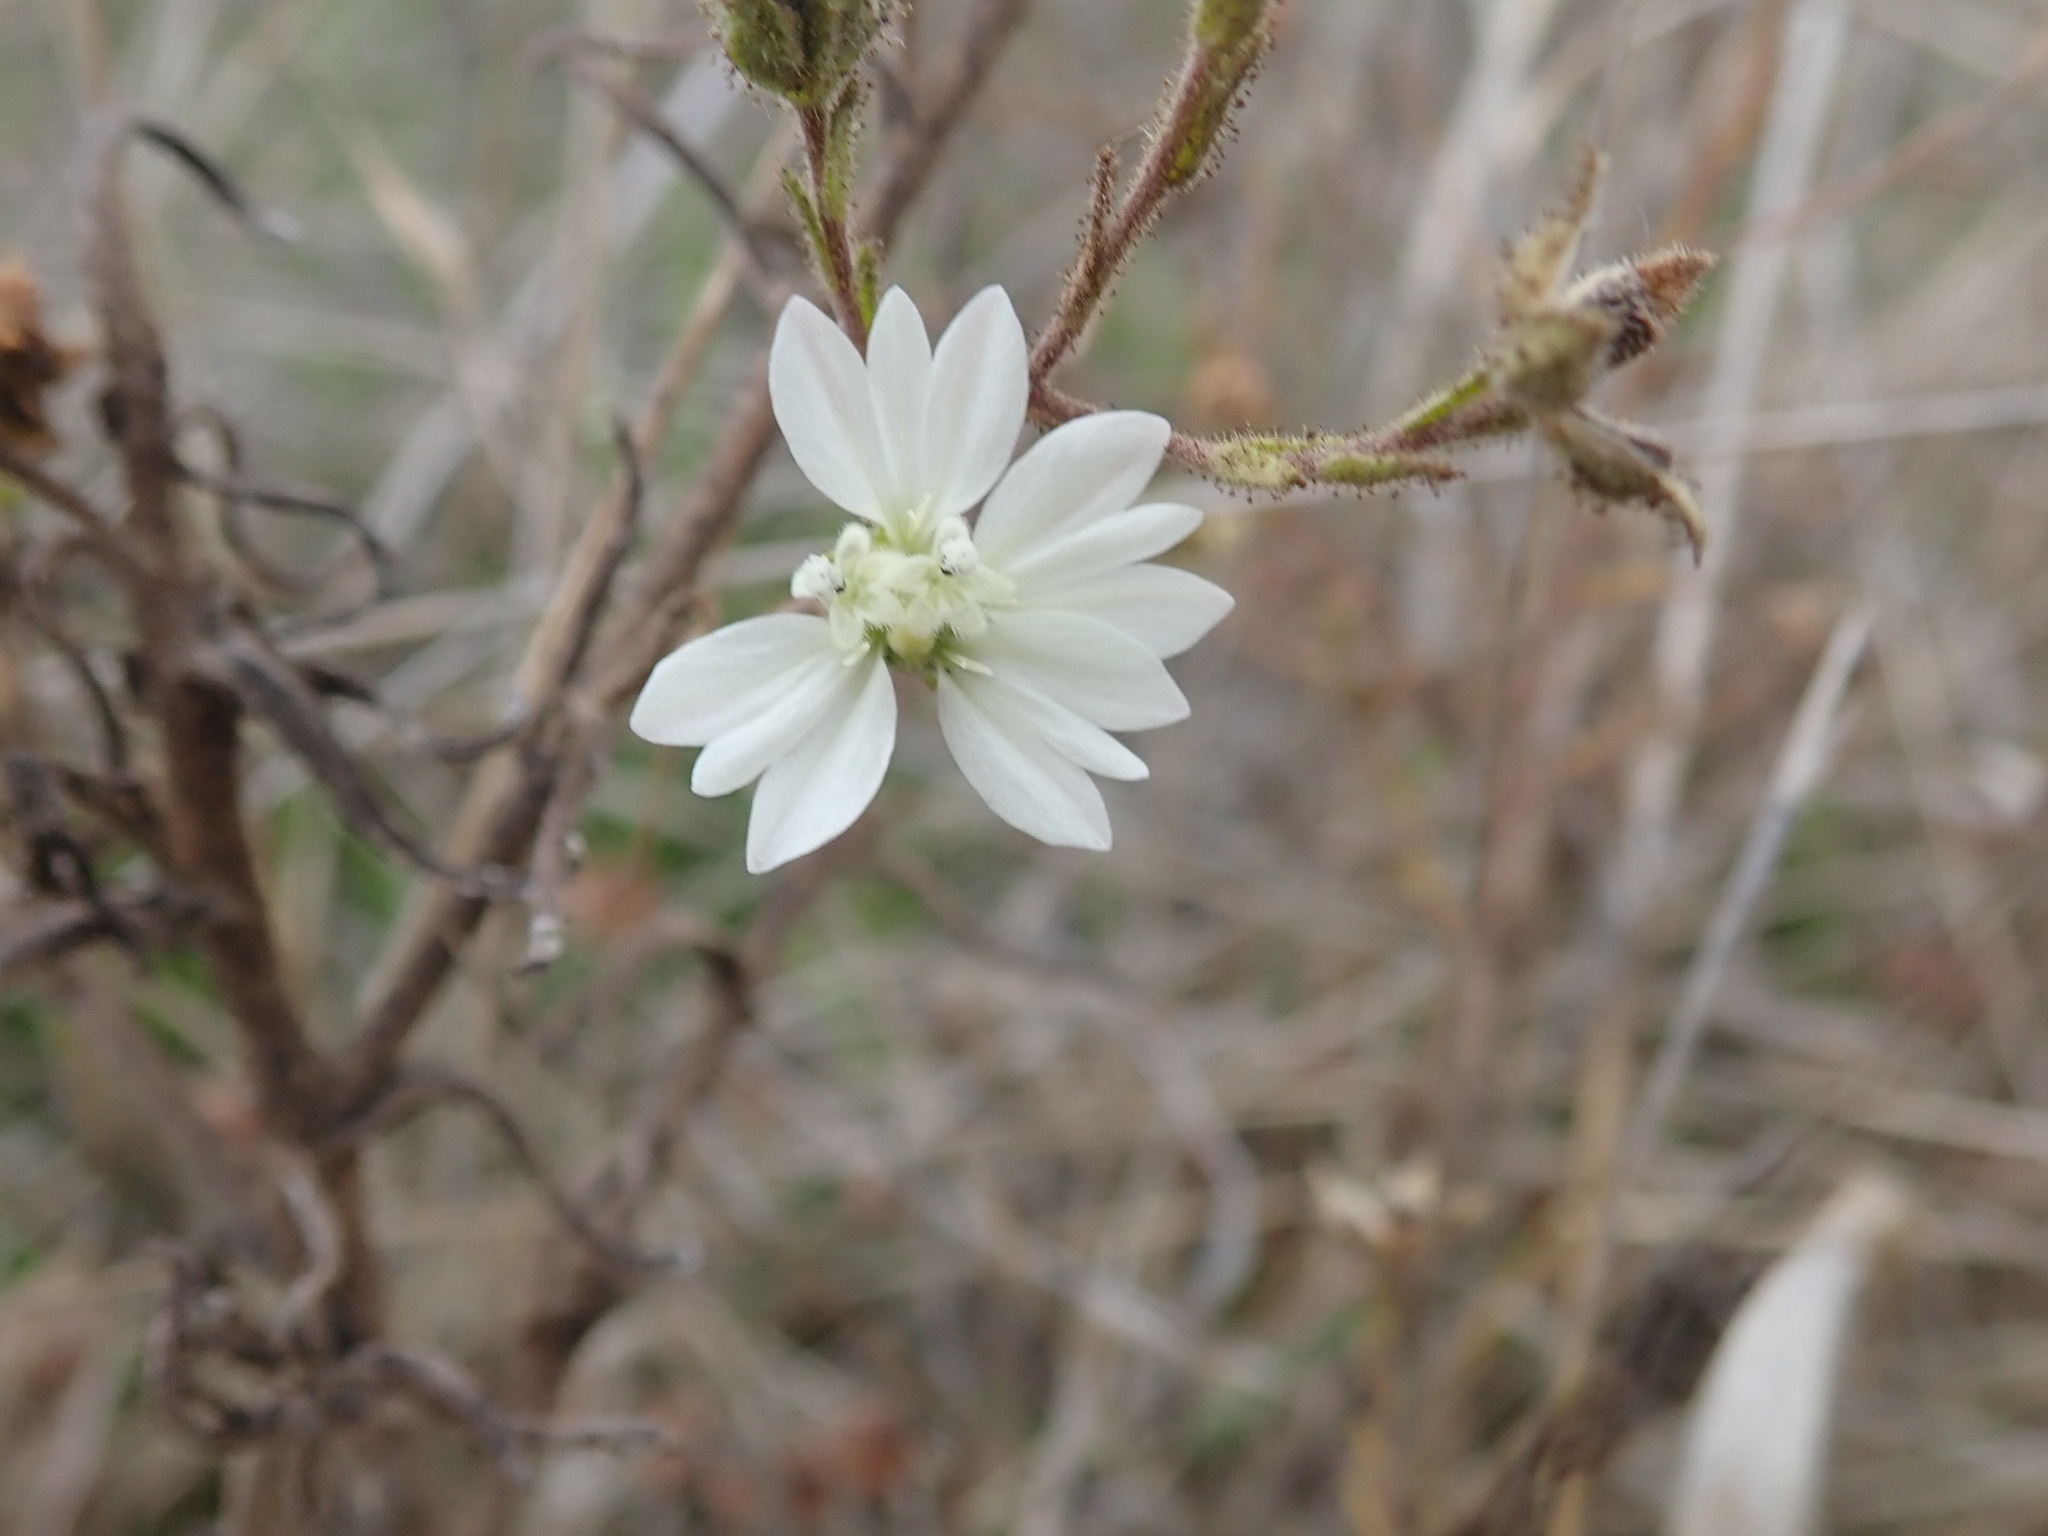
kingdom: Plantae
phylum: Tracheophyta
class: Magnoliopsida
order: Asterales
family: Asteraceae
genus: Hemizonia
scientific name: Hemizonia congesta
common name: Hayfield tarweed
